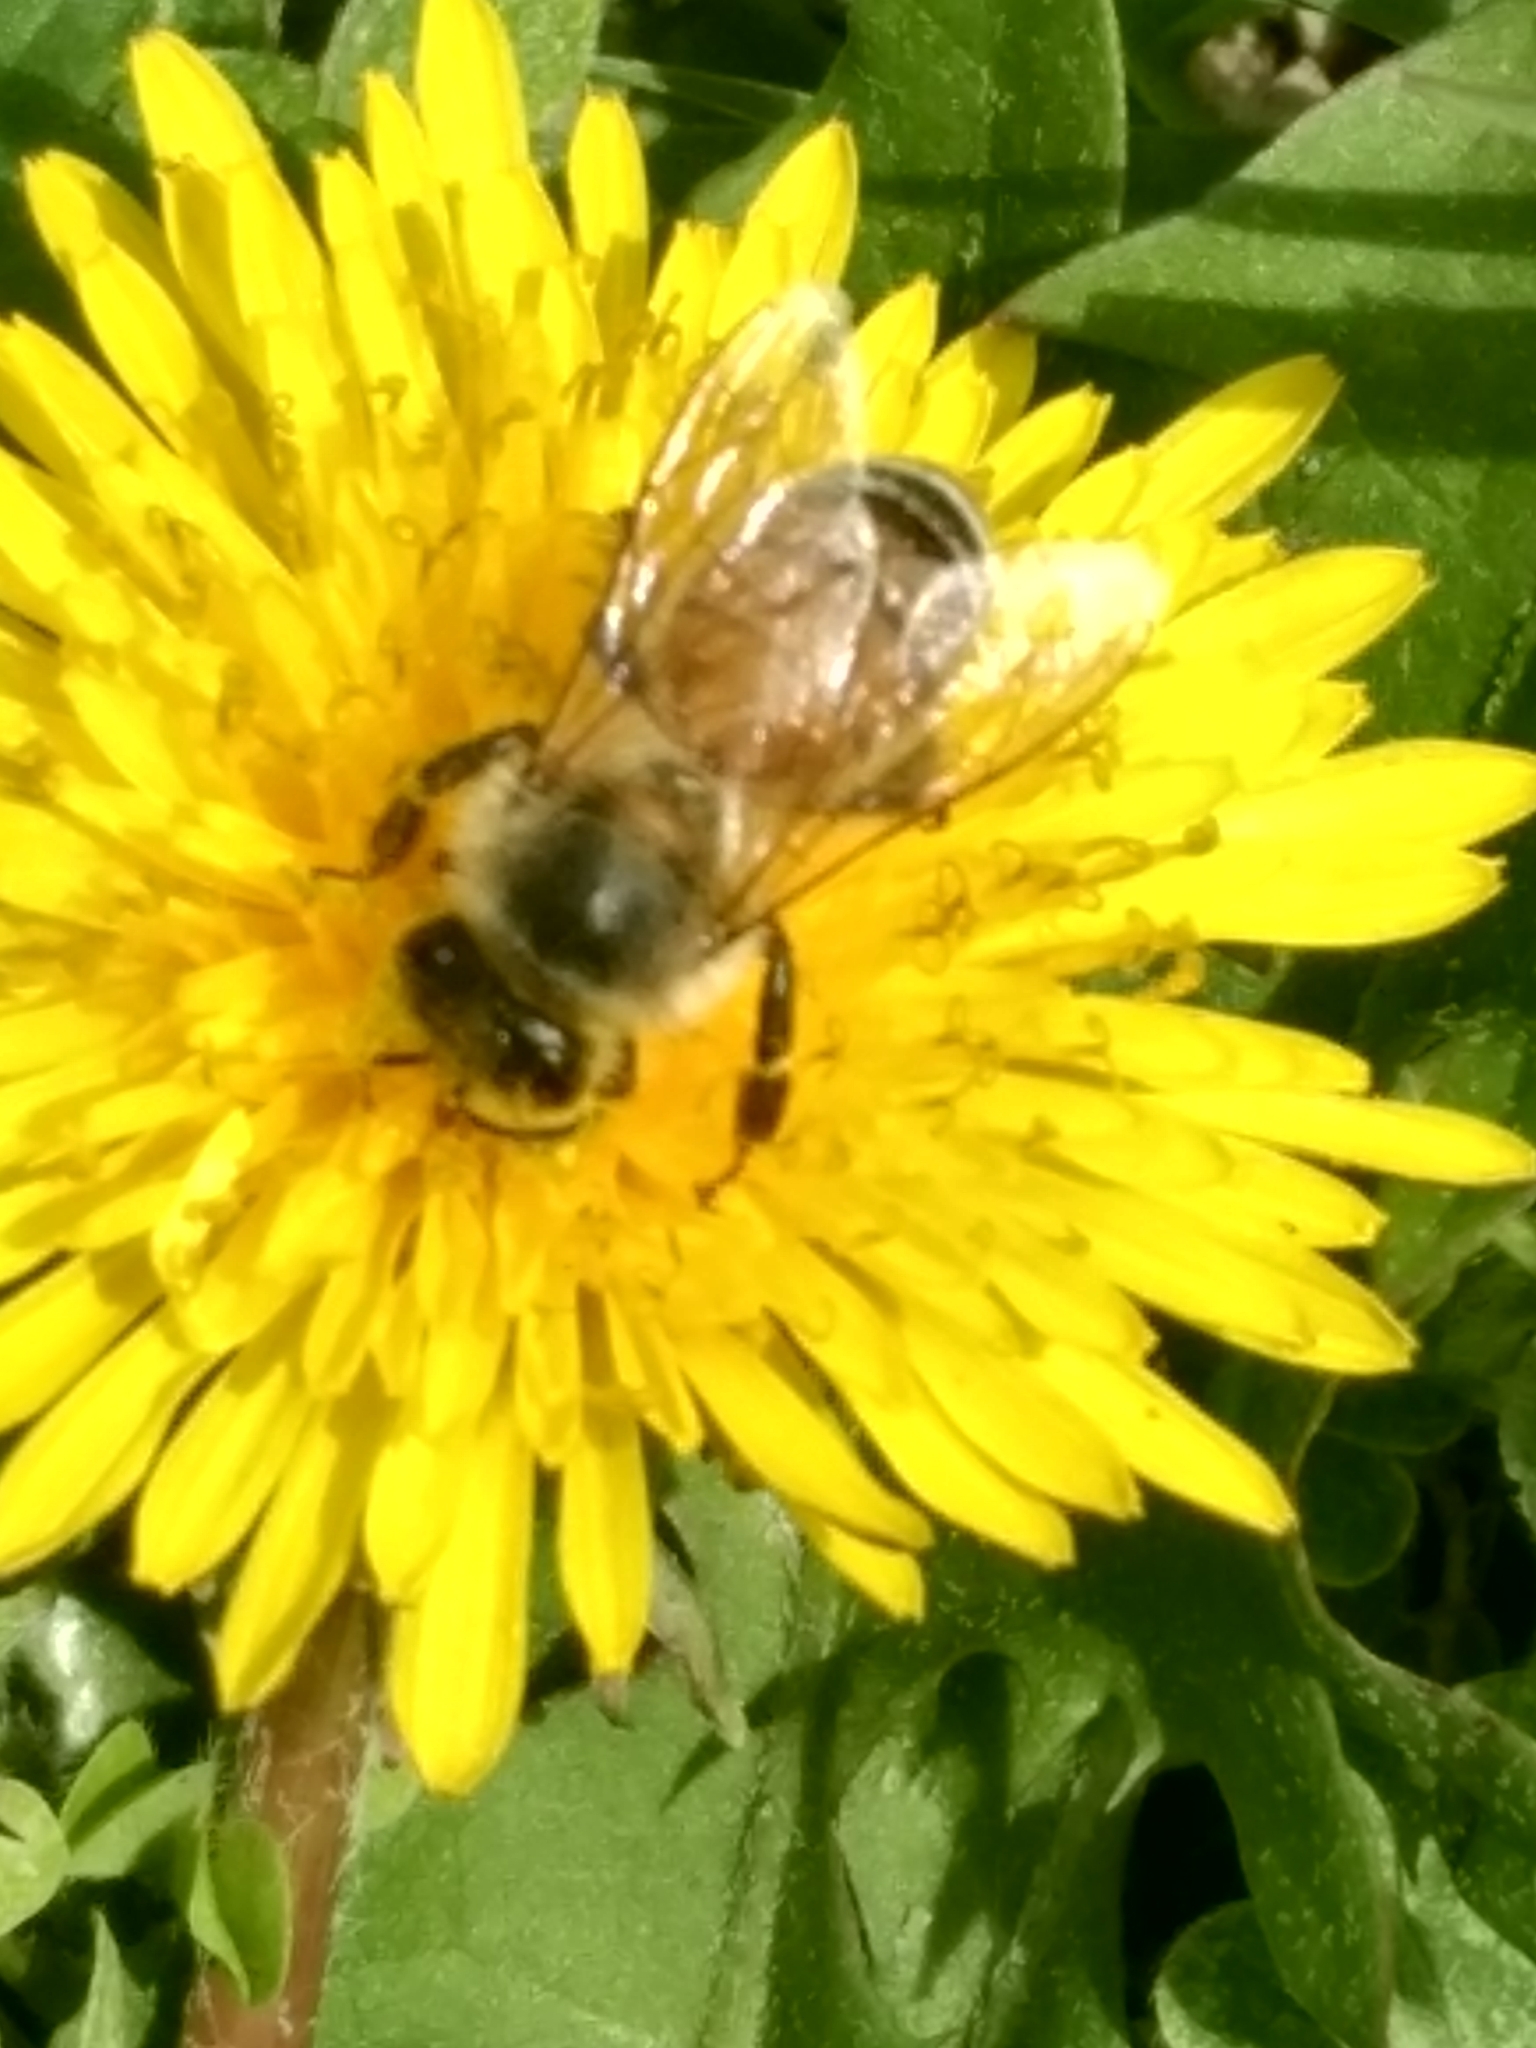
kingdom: Animalia
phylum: Arthropoda
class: Insecta
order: Hymenoptera
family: Apidae
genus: Apis
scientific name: Apis mellifera
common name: Honey bee
